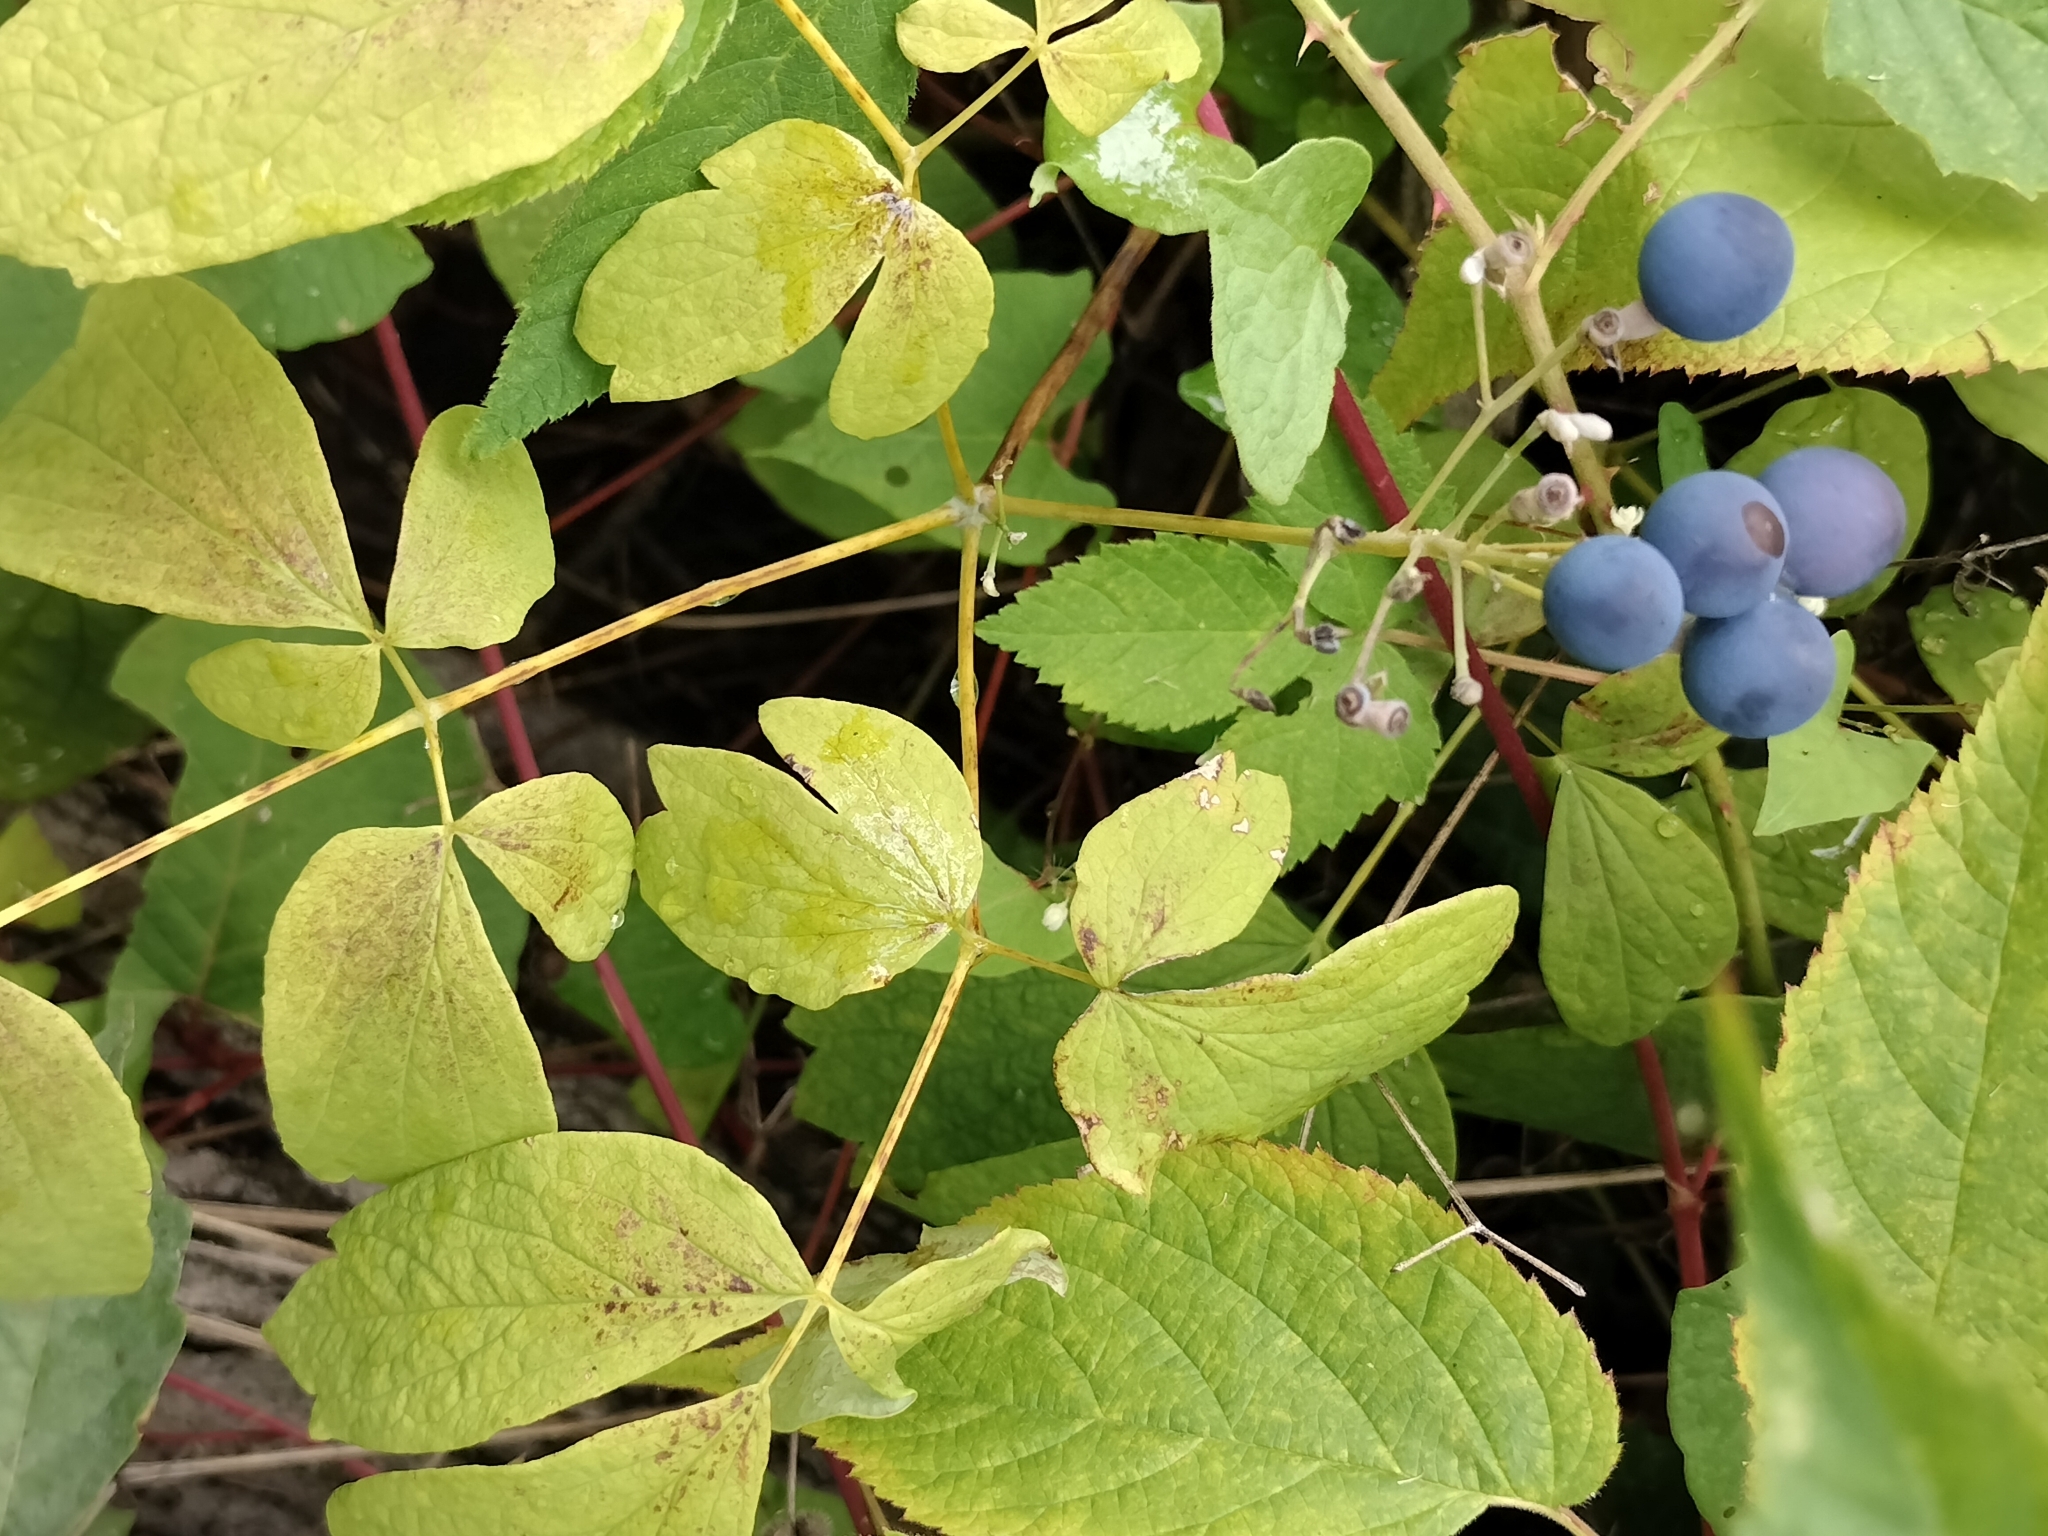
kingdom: Plantae
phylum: Tracheophyta
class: Magnoliopsida
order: Ranunculales
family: Berberidaceae
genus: Caulophyllum
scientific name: Caulophyllum thalictroides
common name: Blue cohosh
